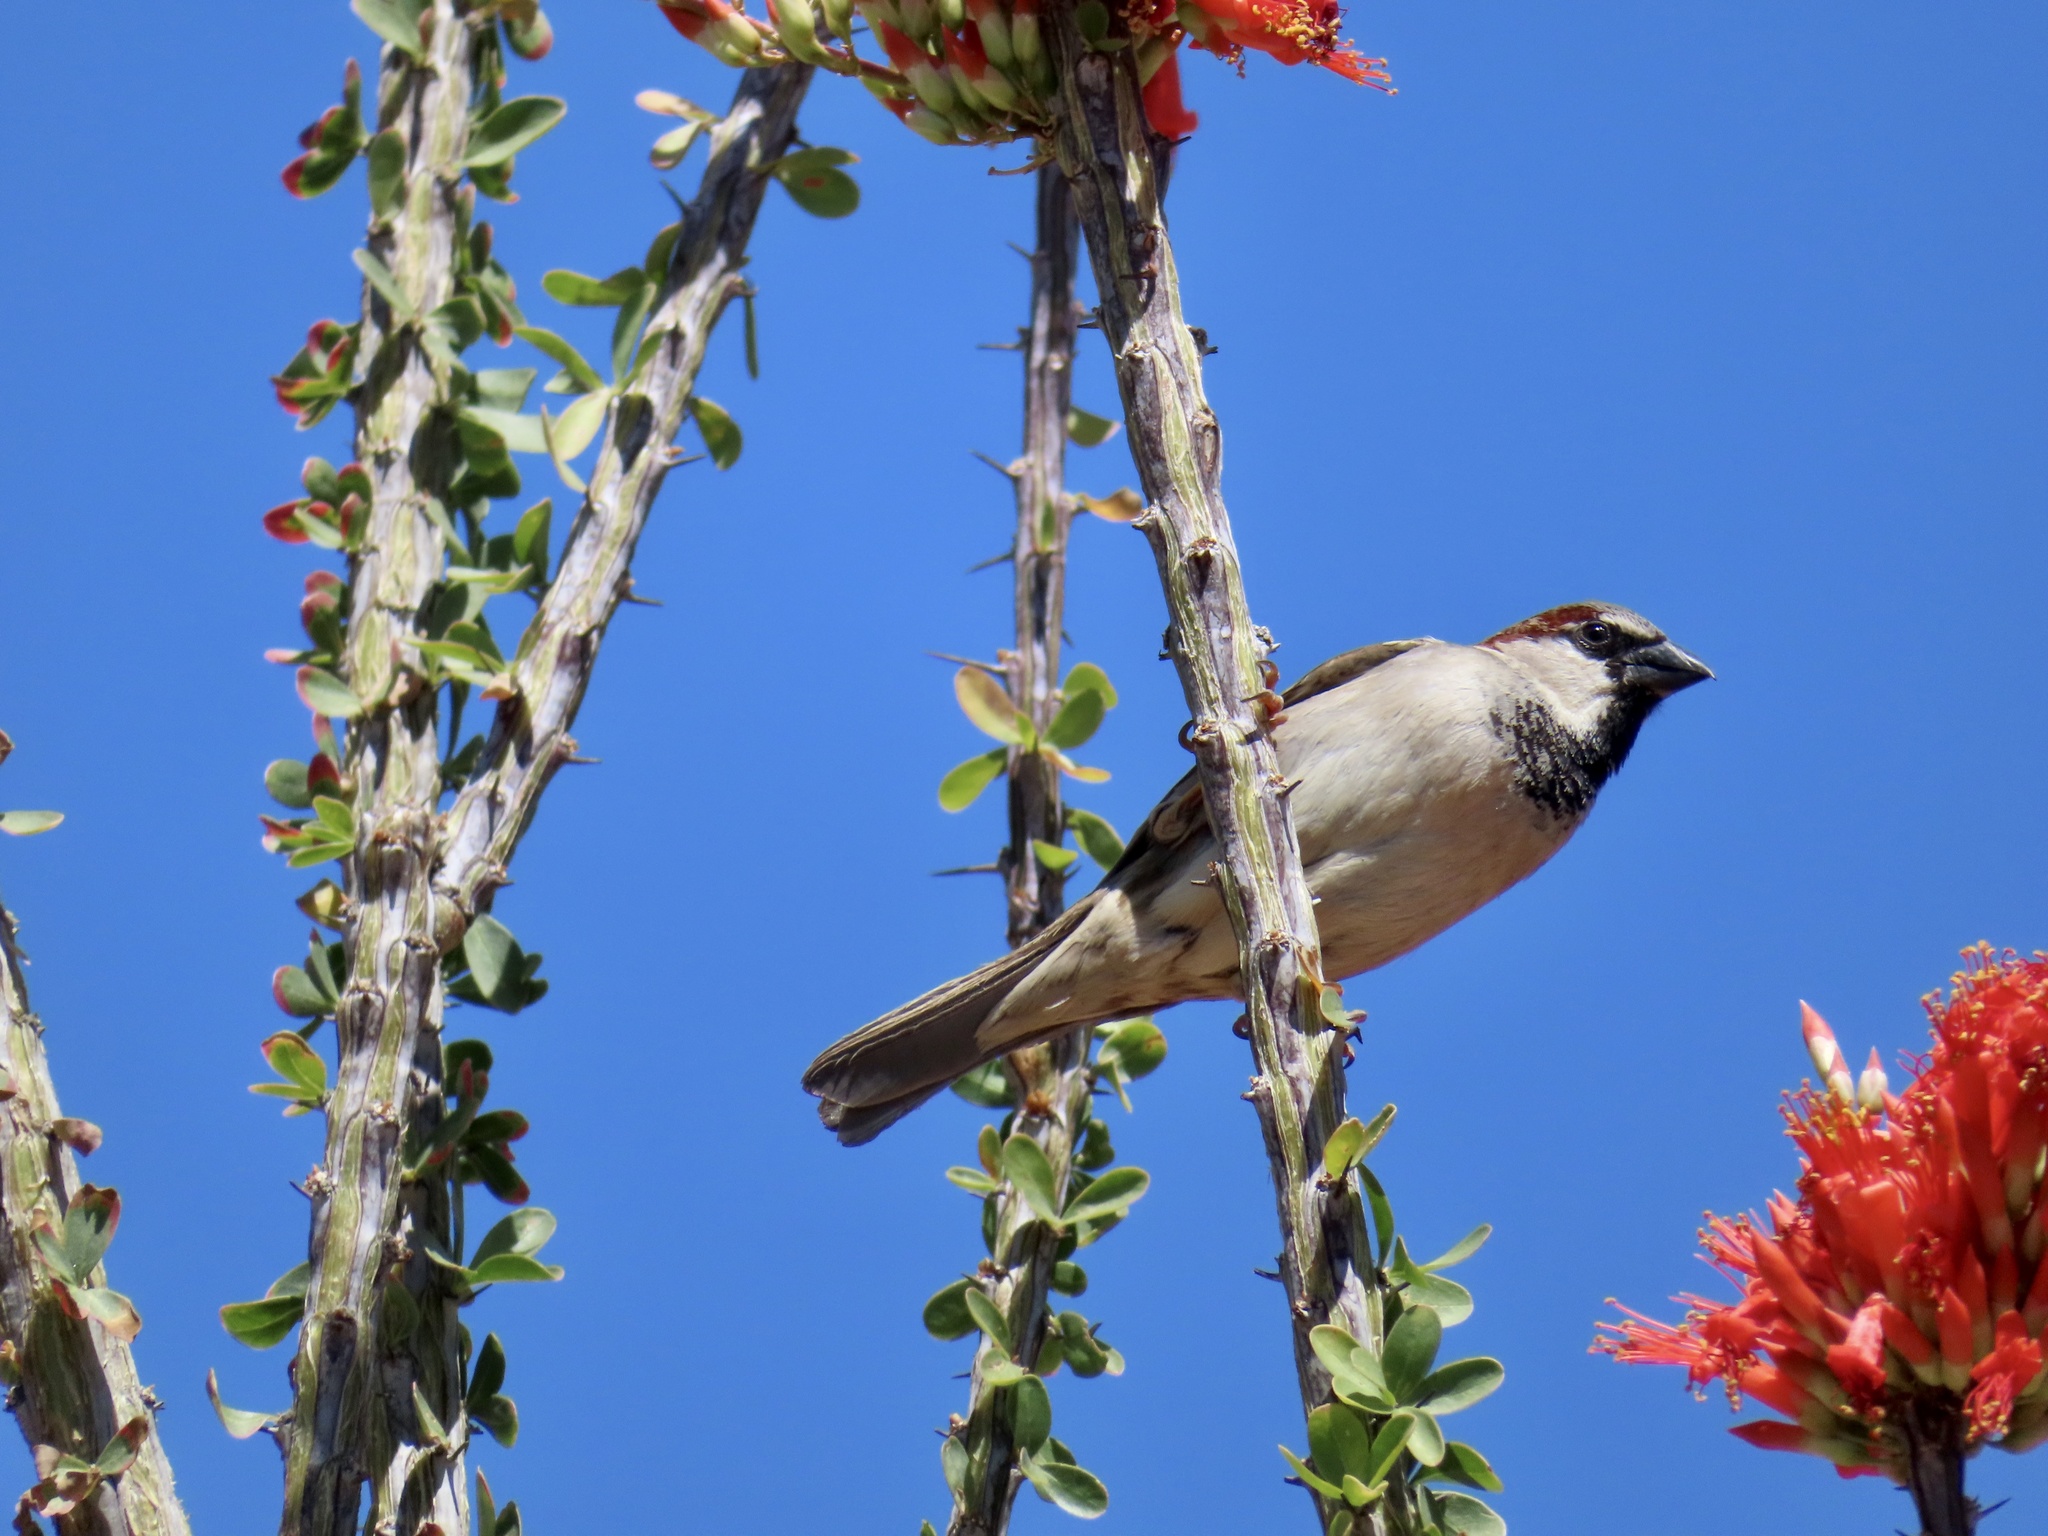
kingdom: Animalia
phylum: Chordata
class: Aves
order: Passeriformes
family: Passeridae
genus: Passer
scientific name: Passer domesticus
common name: House sparrow
